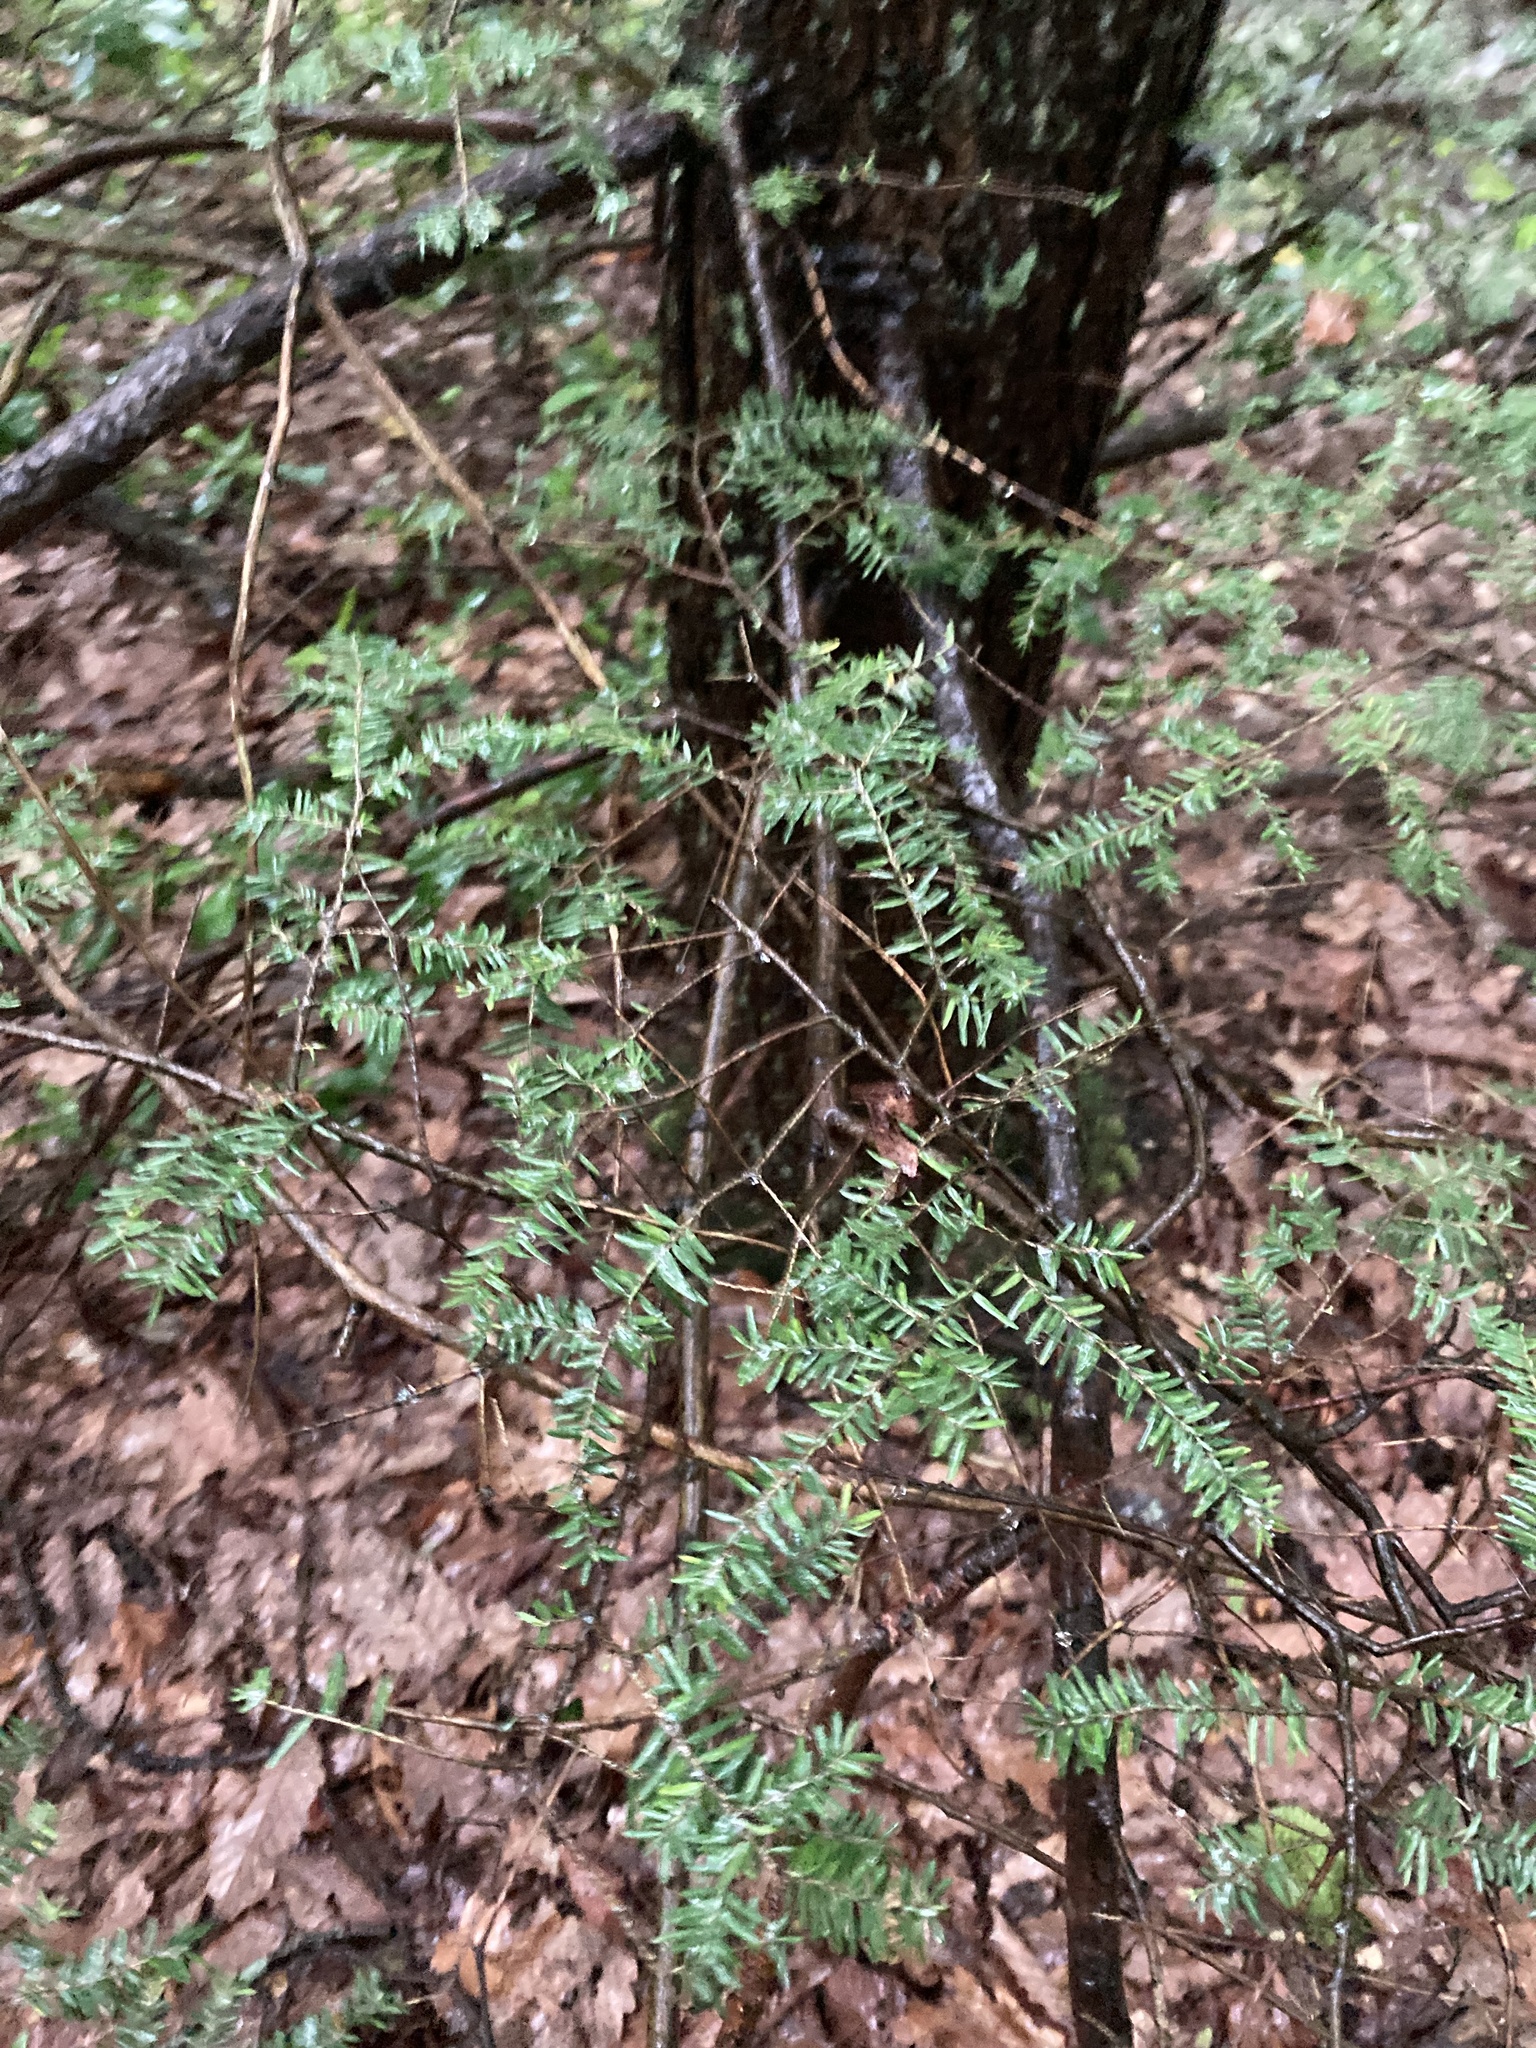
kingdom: Plantae
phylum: Tracheophyta
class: Pinopsida
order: Pinales
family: Pinaceae
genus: Tsuga
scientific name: Tsuga canadensis
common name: Eastern hemlock
